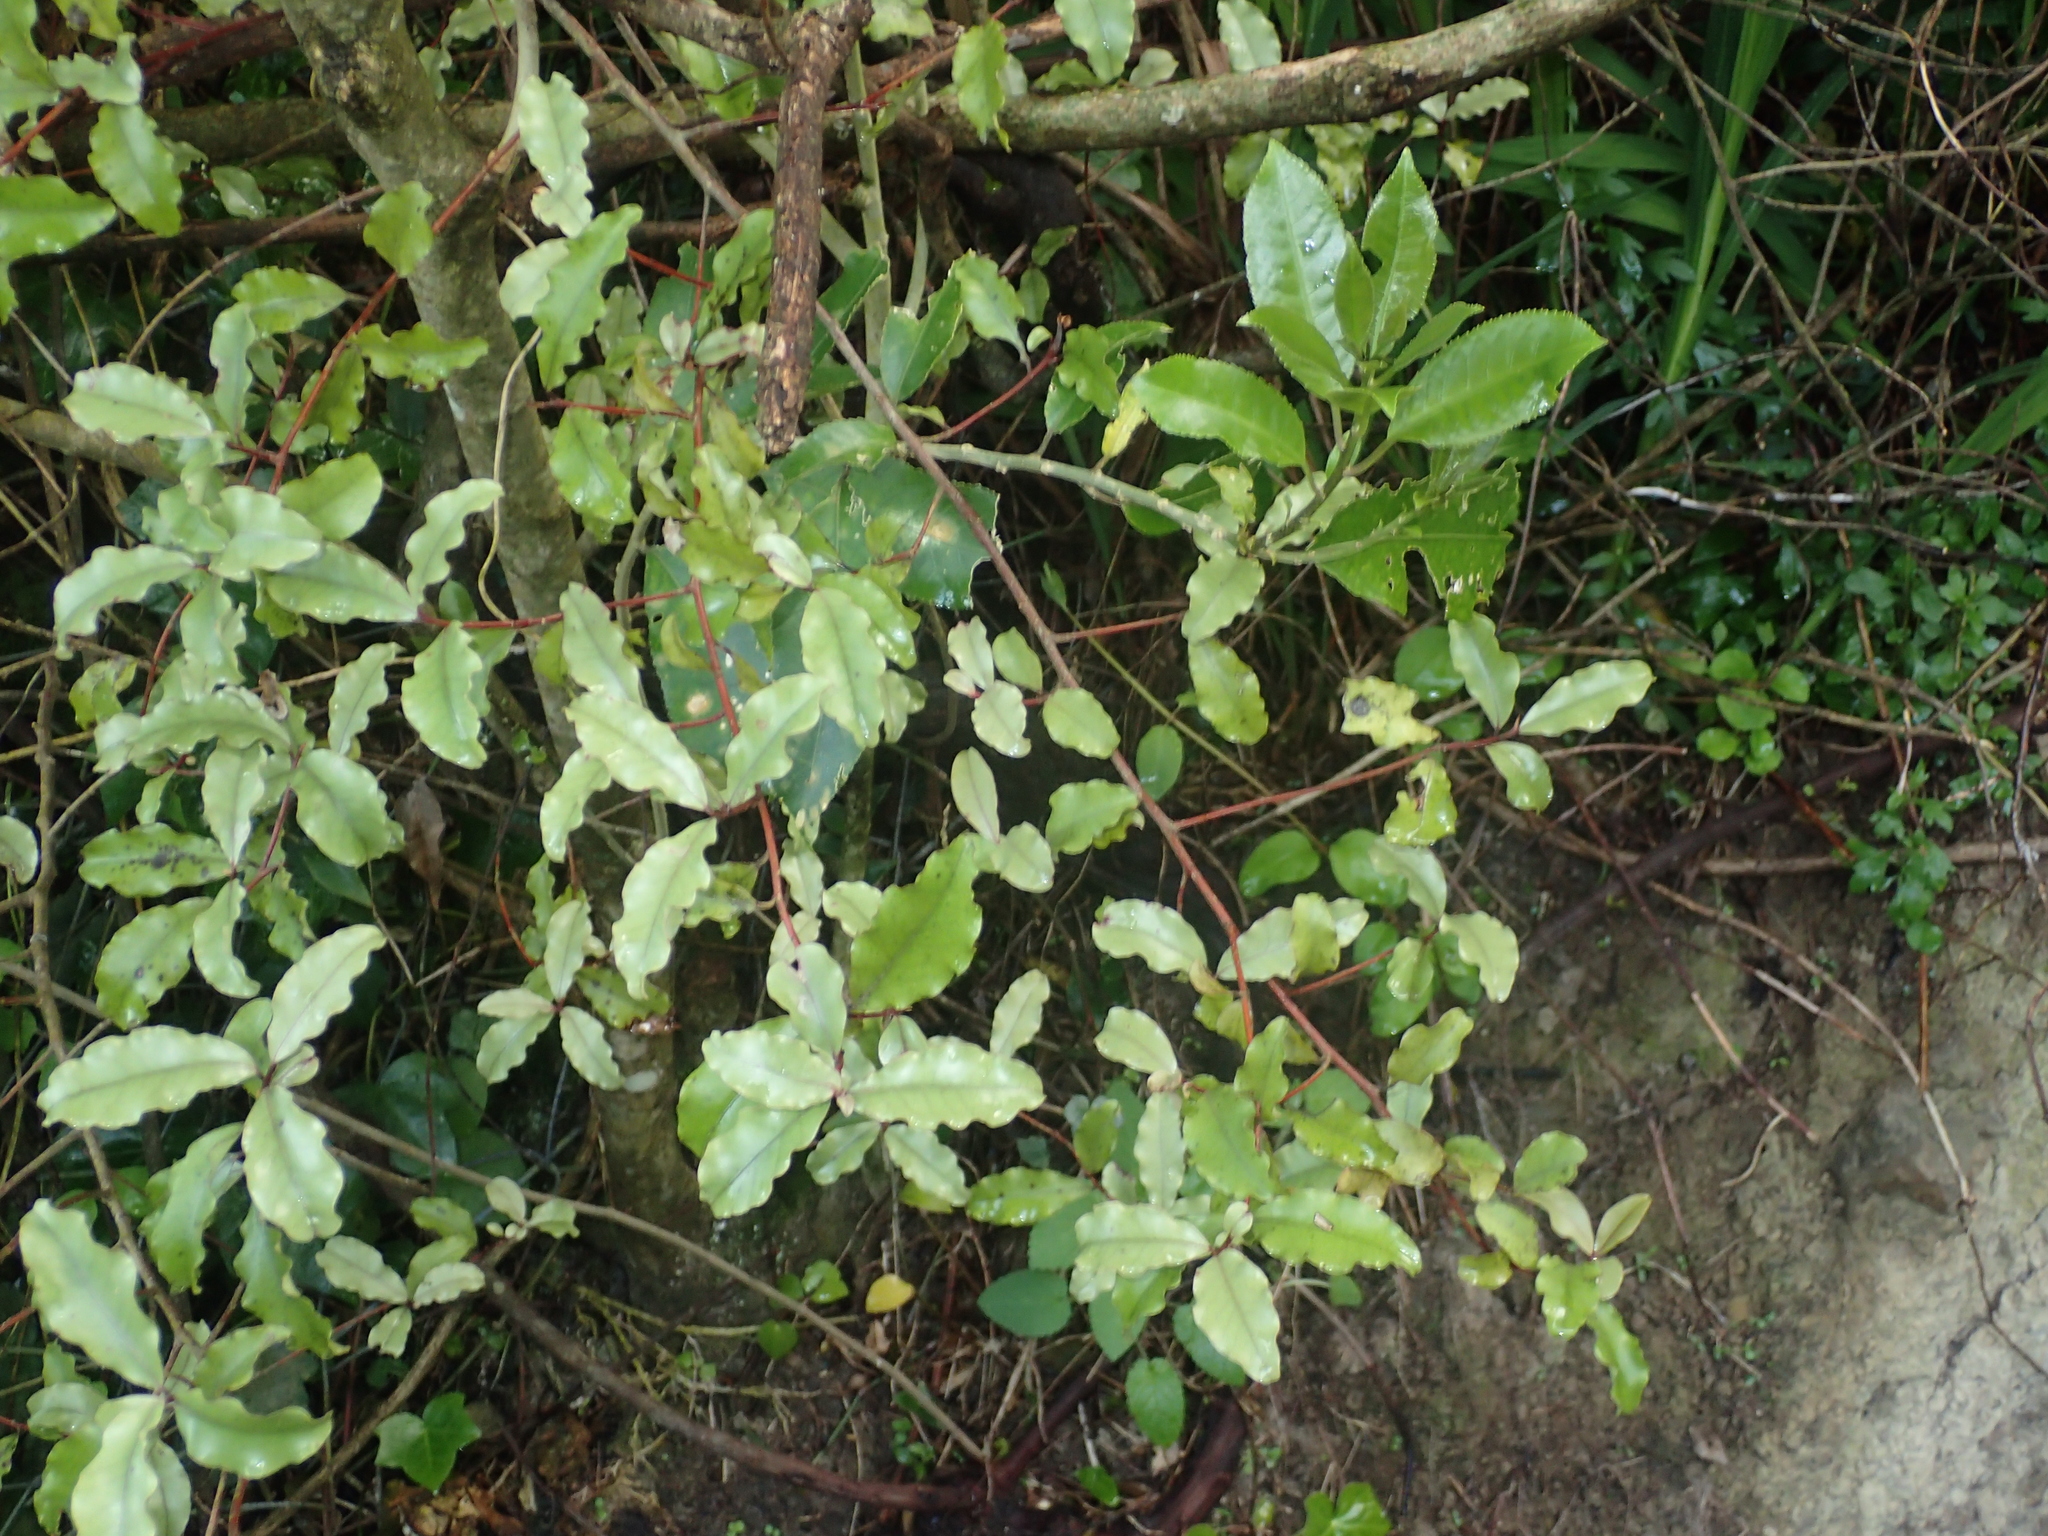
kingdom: Plantae
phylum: Tracheophyta
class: Magnoliopsida
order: Ericales
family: Primulaceae
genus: Myrsine
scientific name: Myrsine australis
